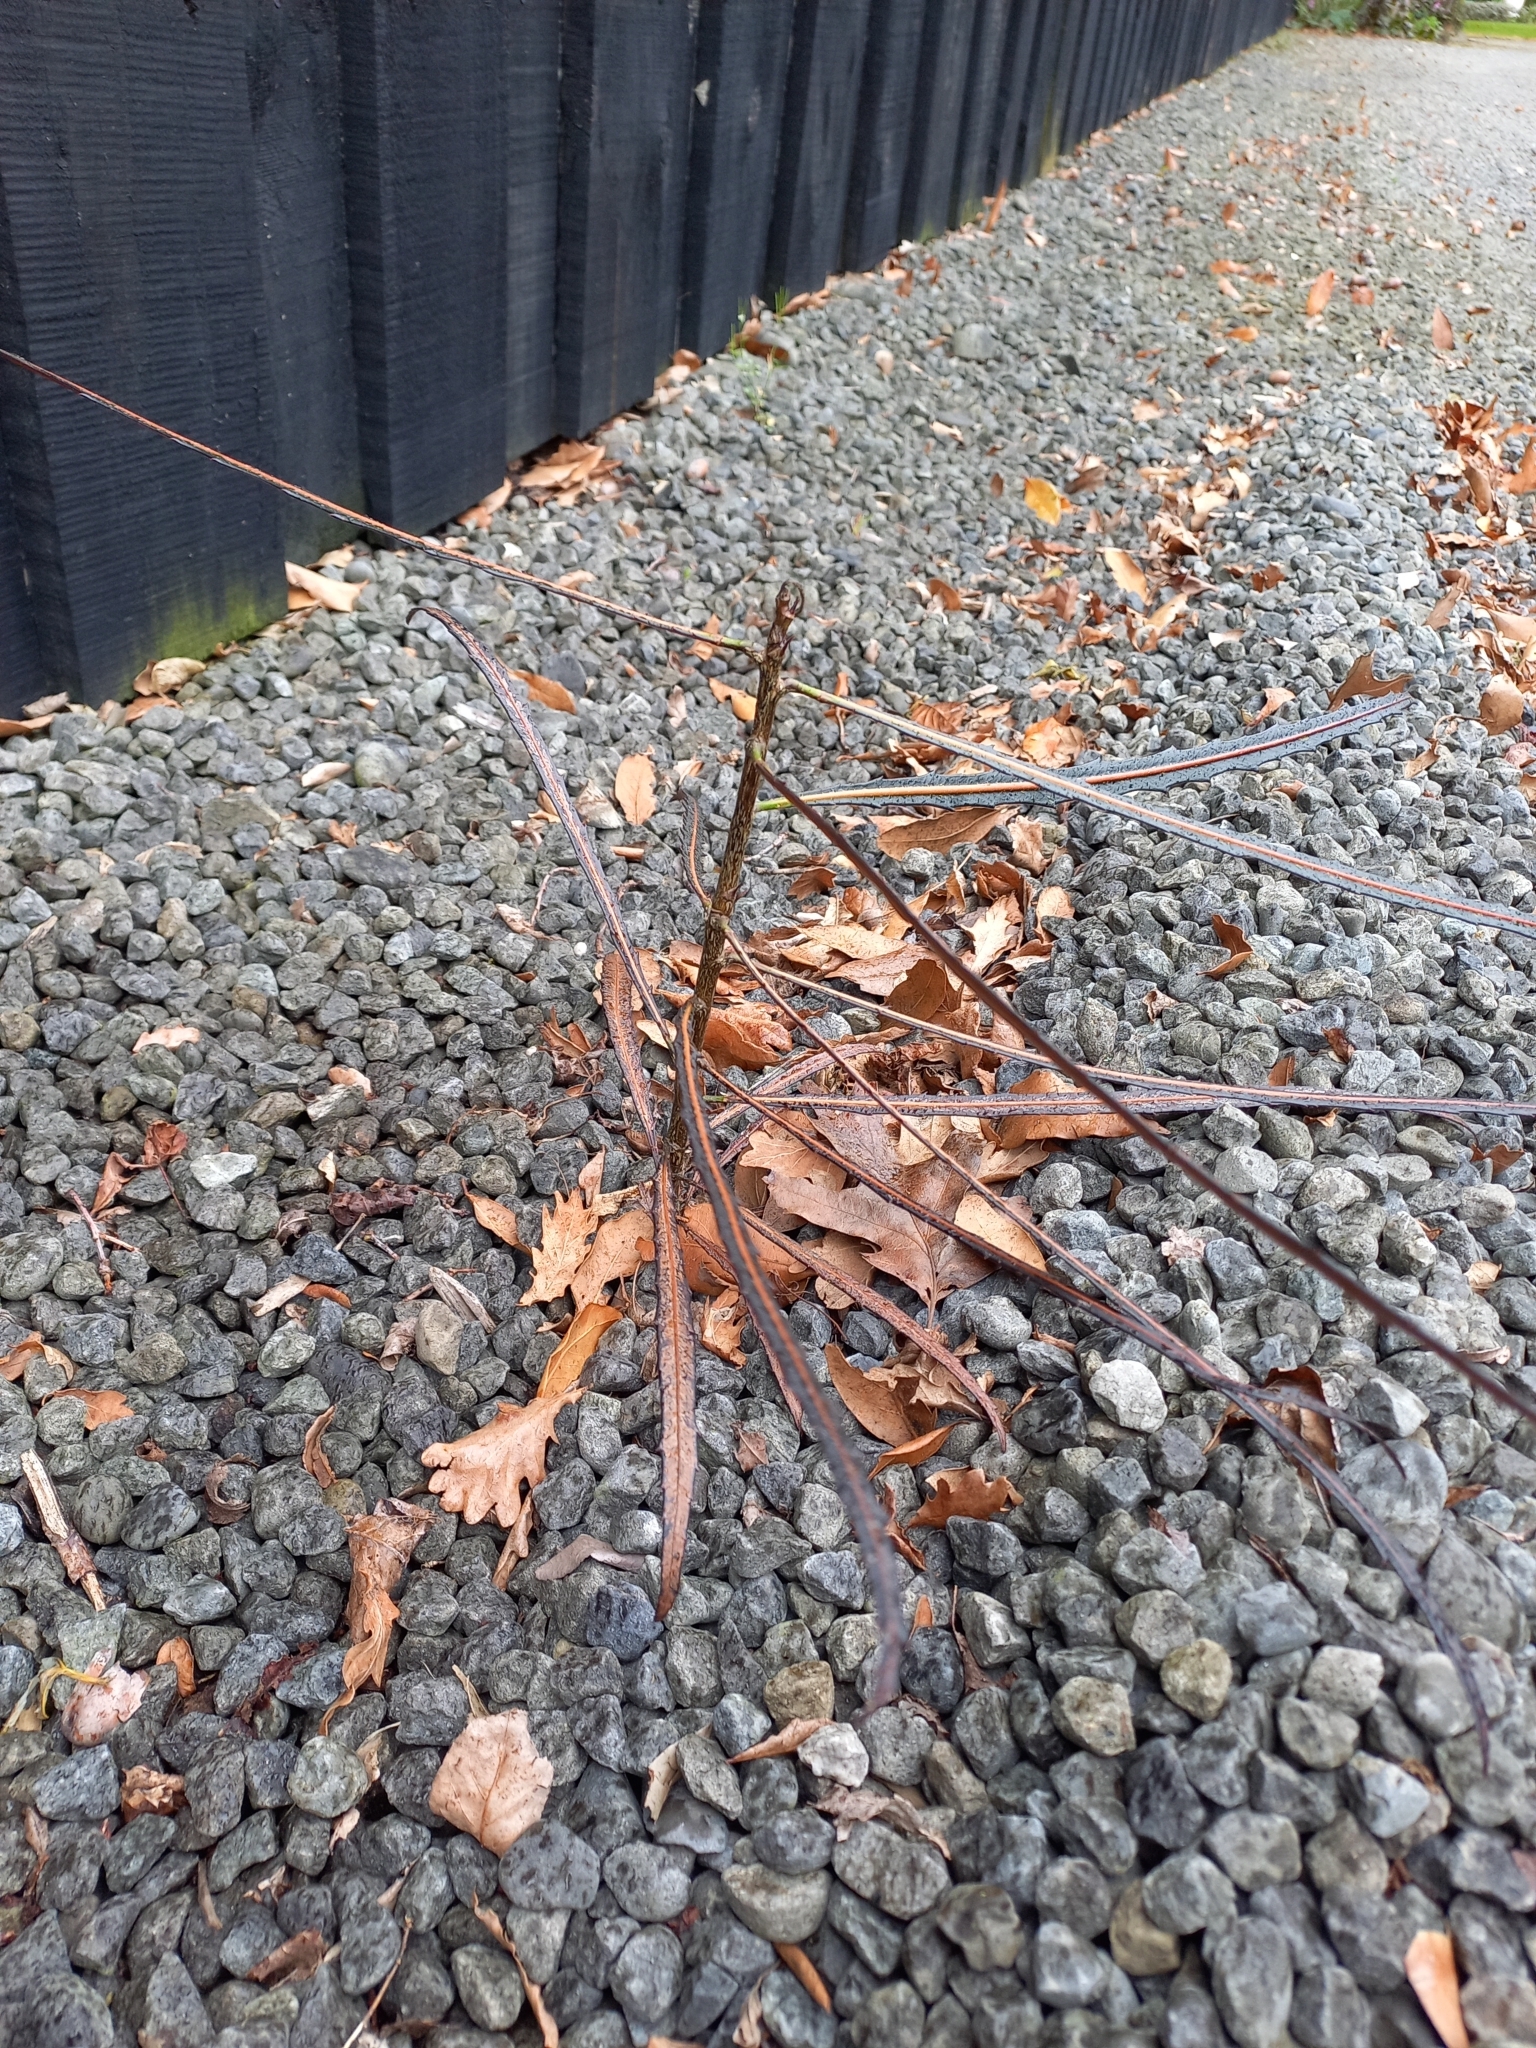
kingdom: Plantae
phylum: Tracheophyta
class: Magnoliopsida
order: Apiales
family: Araliaceae
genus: Pseudopanax
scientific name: Pseudopanax crassifolius
